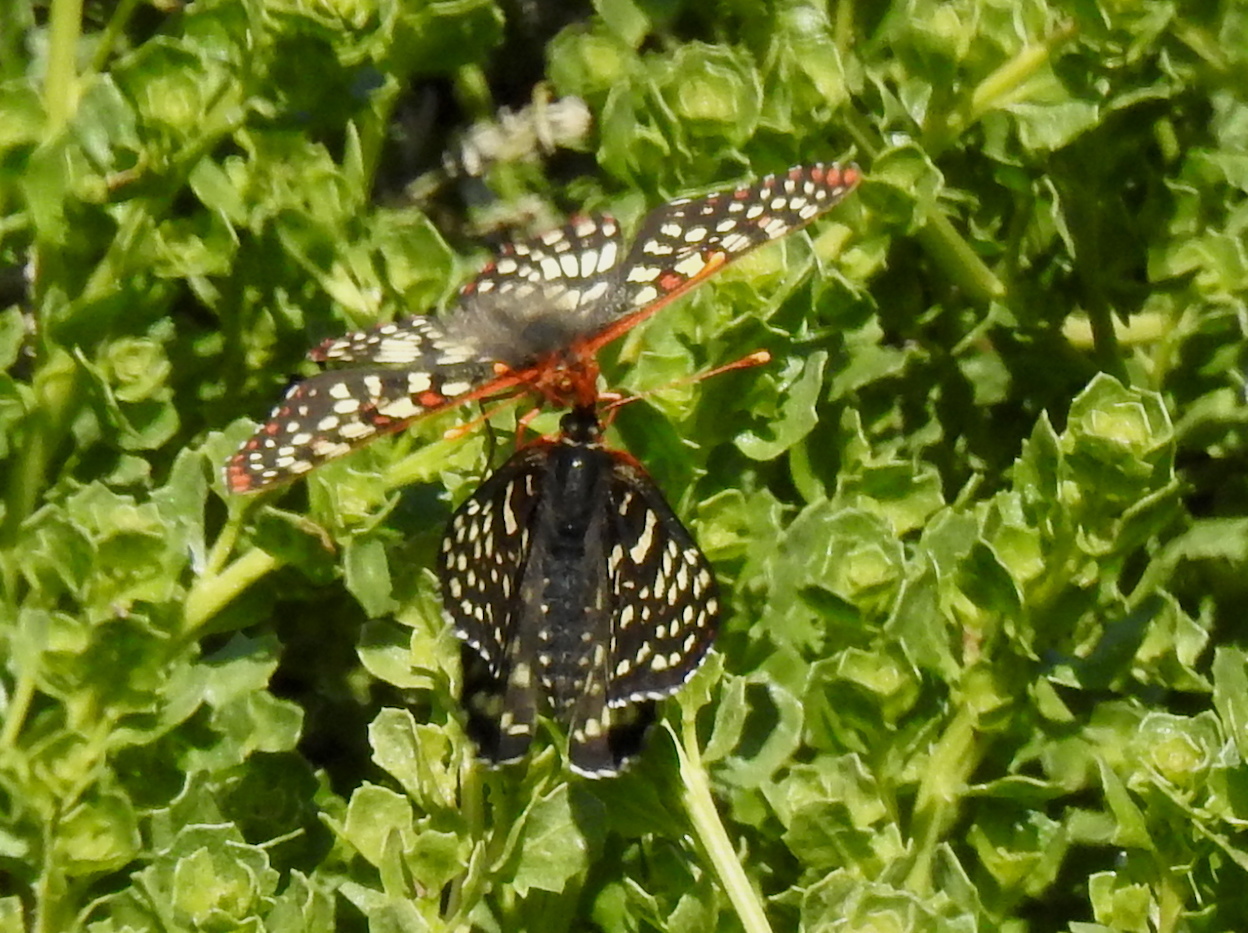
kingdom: Animalia
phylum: Arthropoda
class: Insecta
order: Lepidoptera
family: Nymphalidae
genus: Occidryas
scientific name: Occidryas chalcedona
